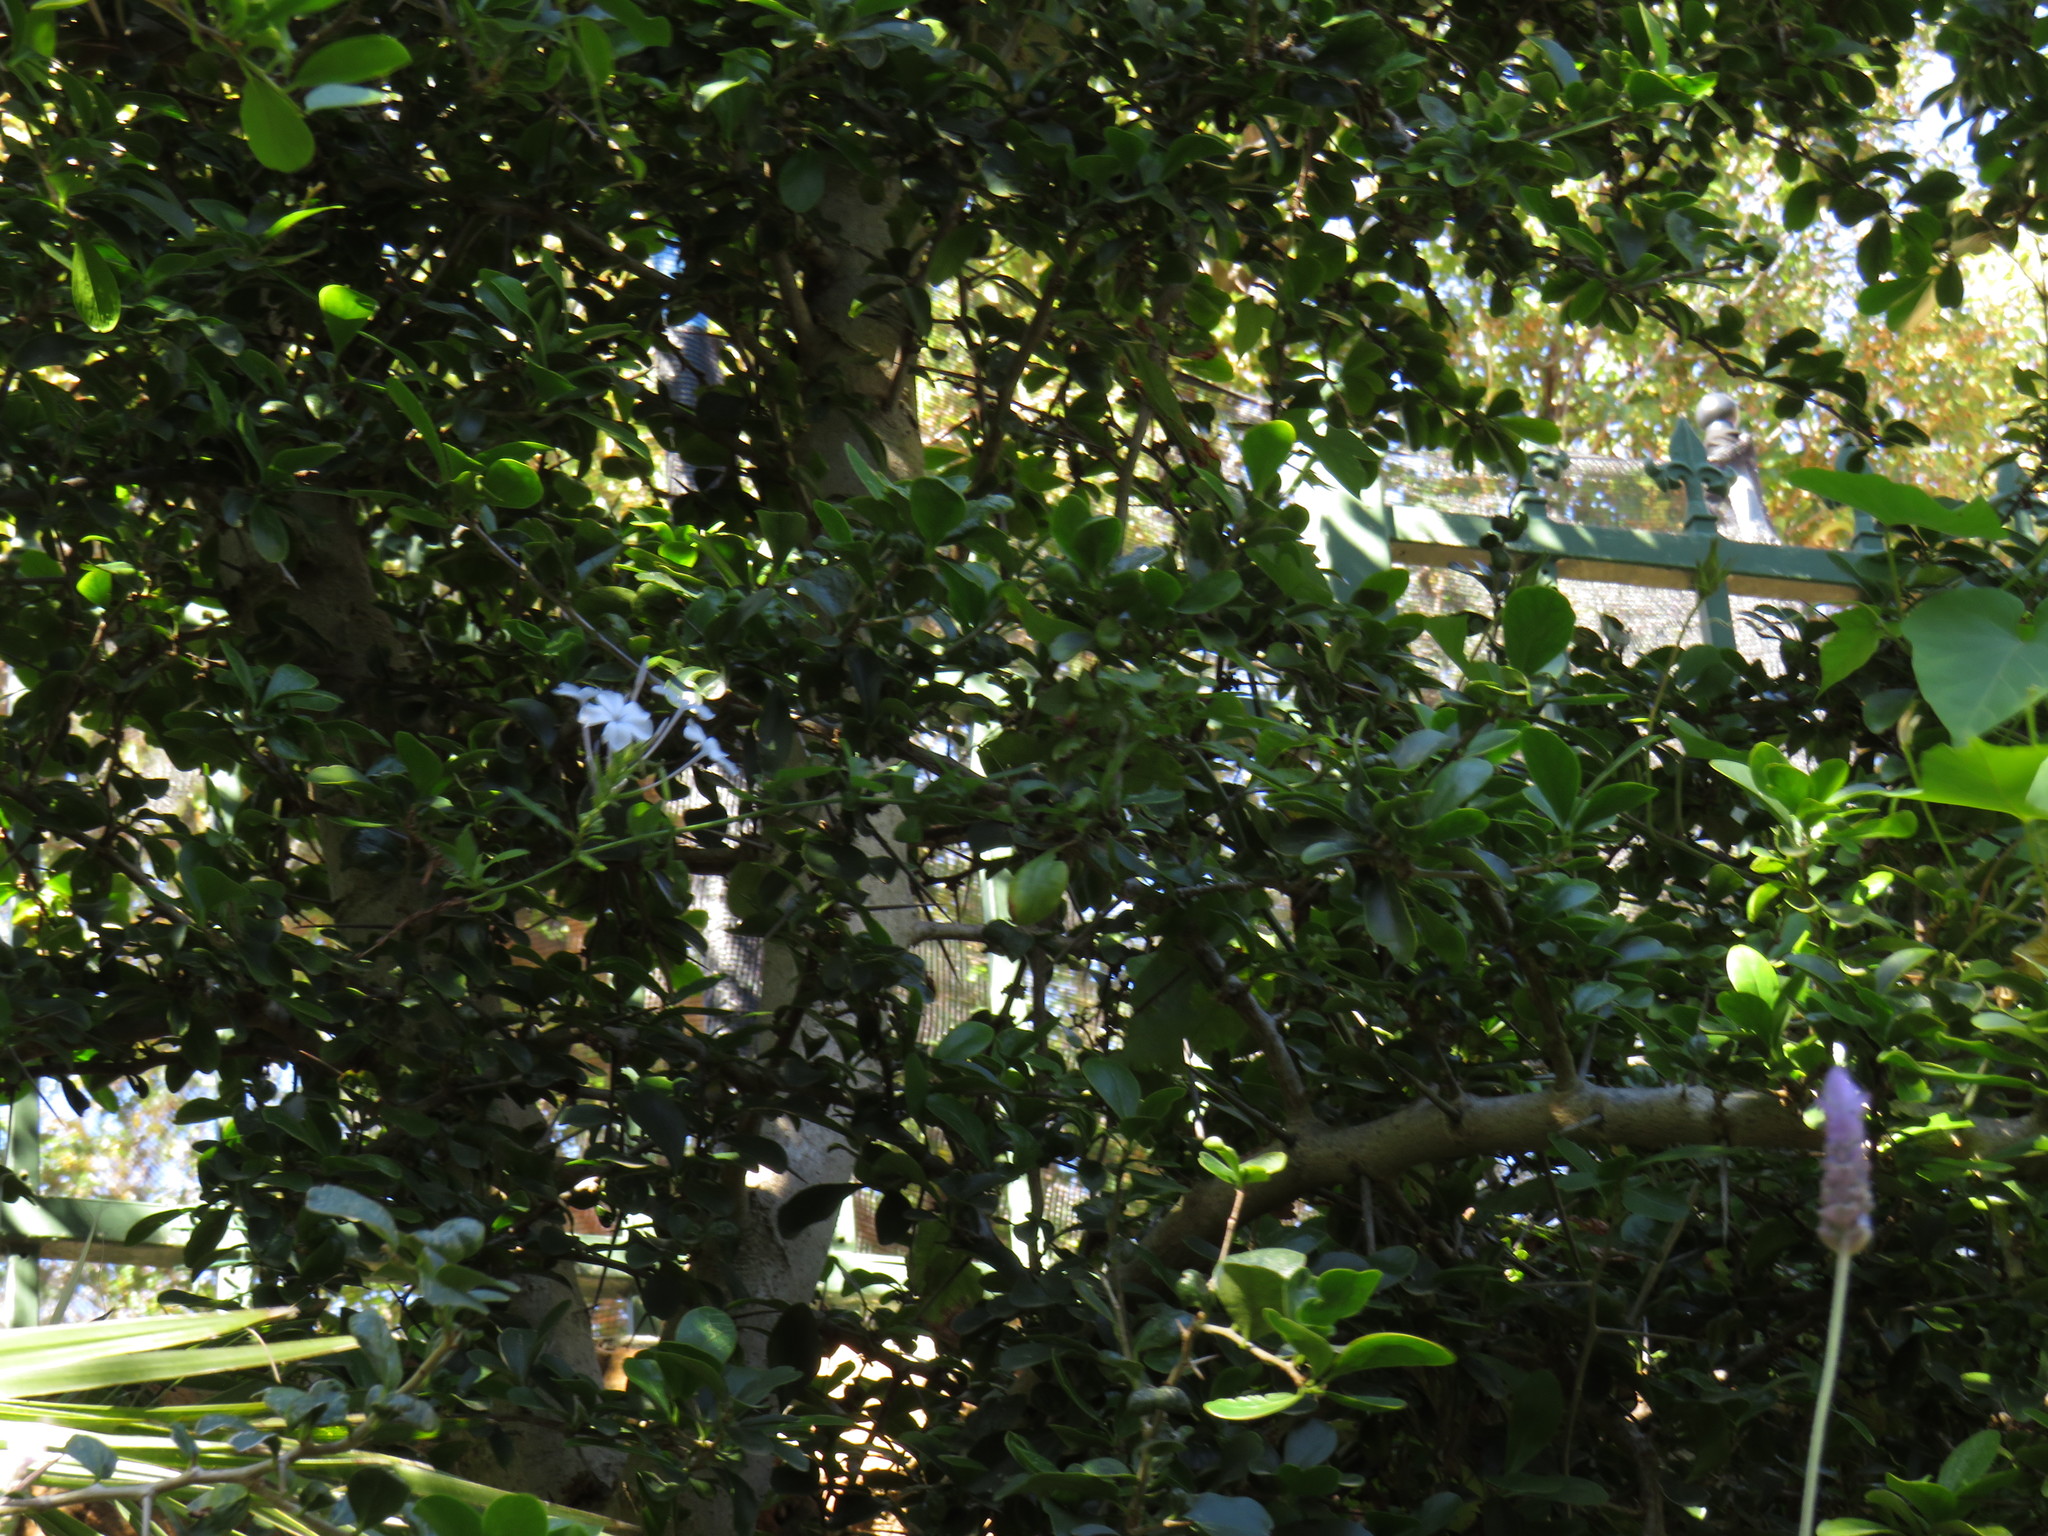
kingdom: Plantae
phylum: Tracheophyta
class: Magnoliopsida
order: Caryophyllales
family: Plumbaginaceae
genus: Plumbago
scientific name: Plumbago auriculata
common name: Cape leadwort
